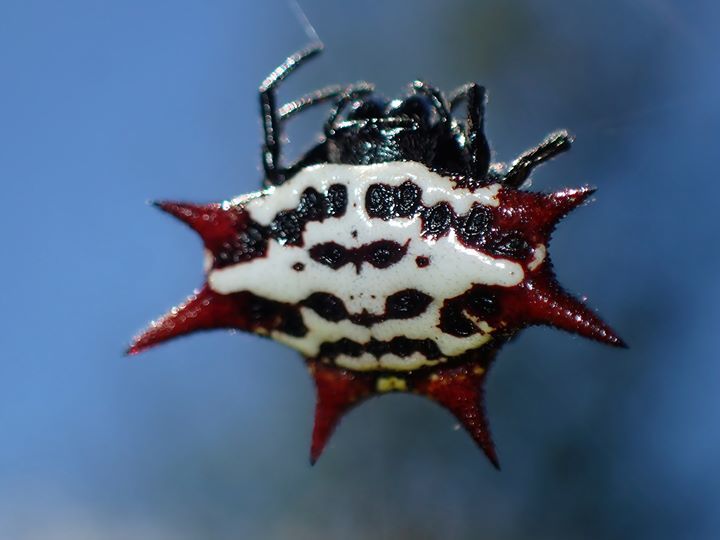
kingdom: Animalia
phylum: Arthropoda
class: Arachnida
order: Araneae
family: Araneidae
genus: Gasteracantha
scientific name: Gasteracantha cancriformis
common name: Orb weavers
